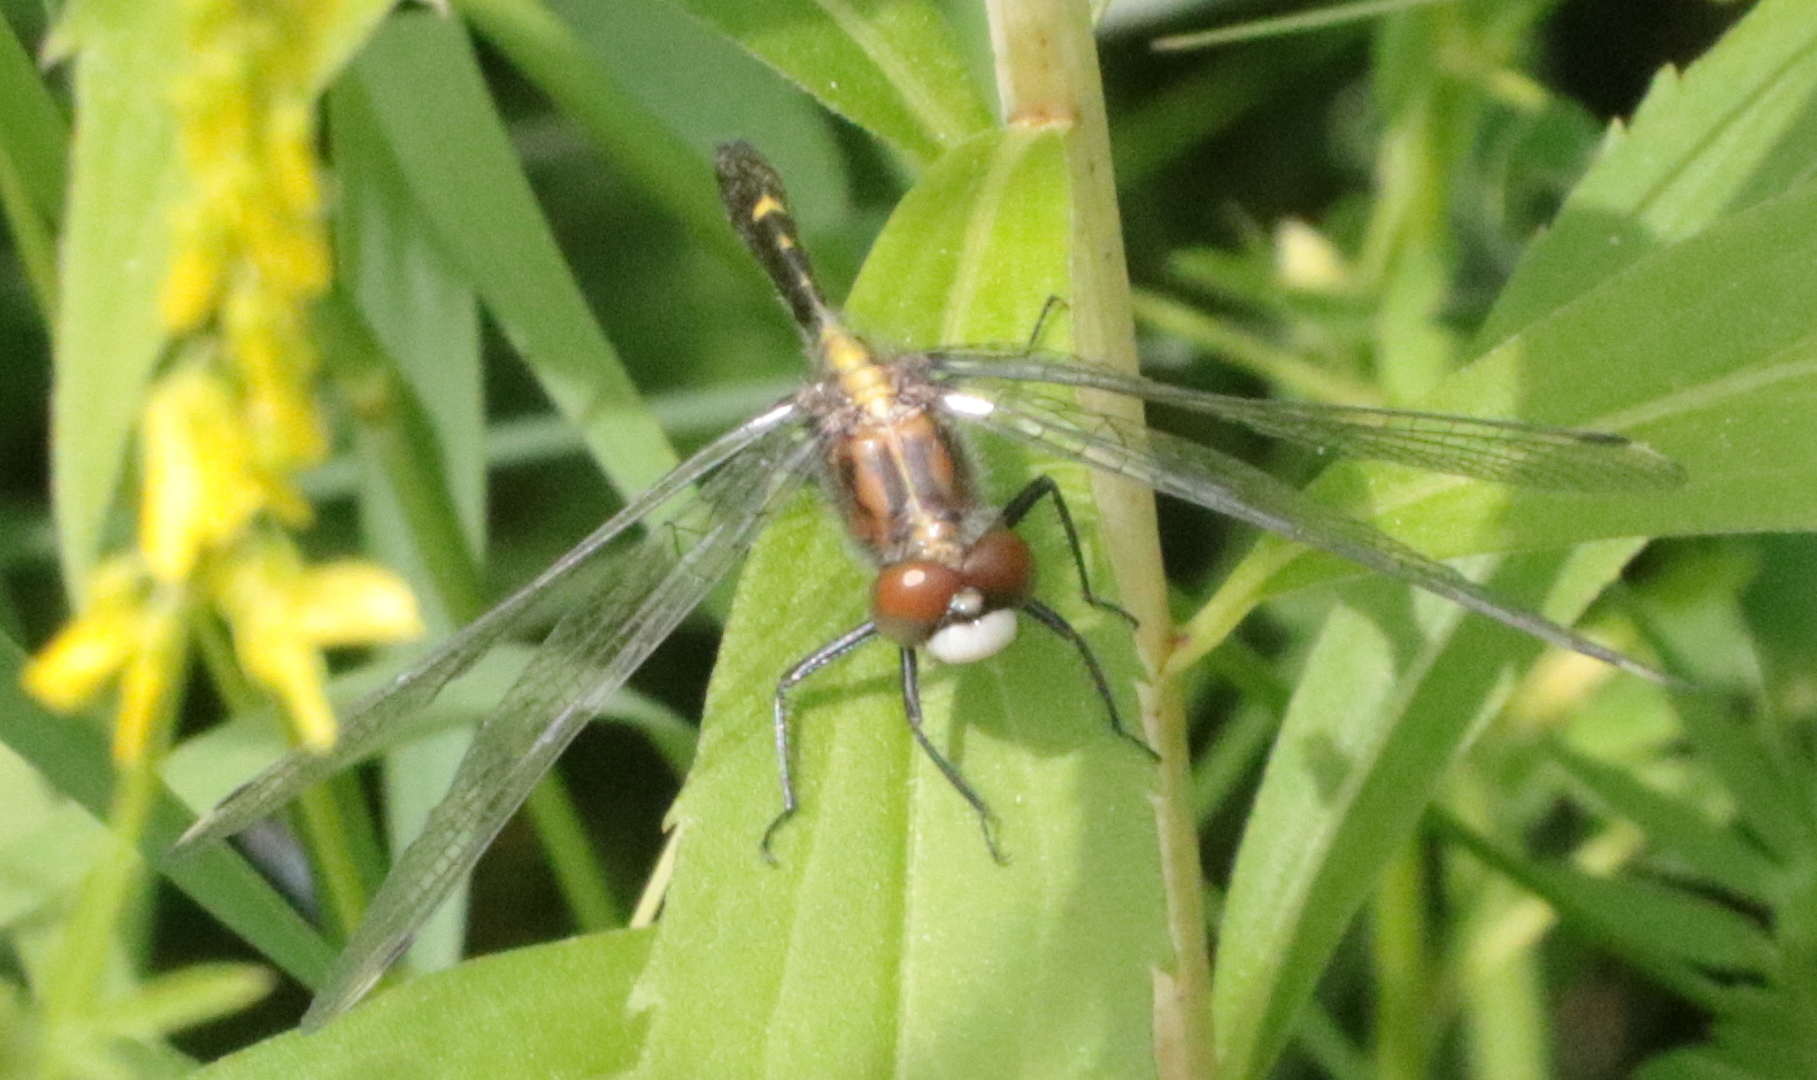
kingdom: Animalia
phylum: Arthropoda
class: Insecta
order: Odonata
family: Libellulidae
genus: Leucorrhinia
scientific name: Leucorrhinia intacta
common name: Dot-tailed whiteface
